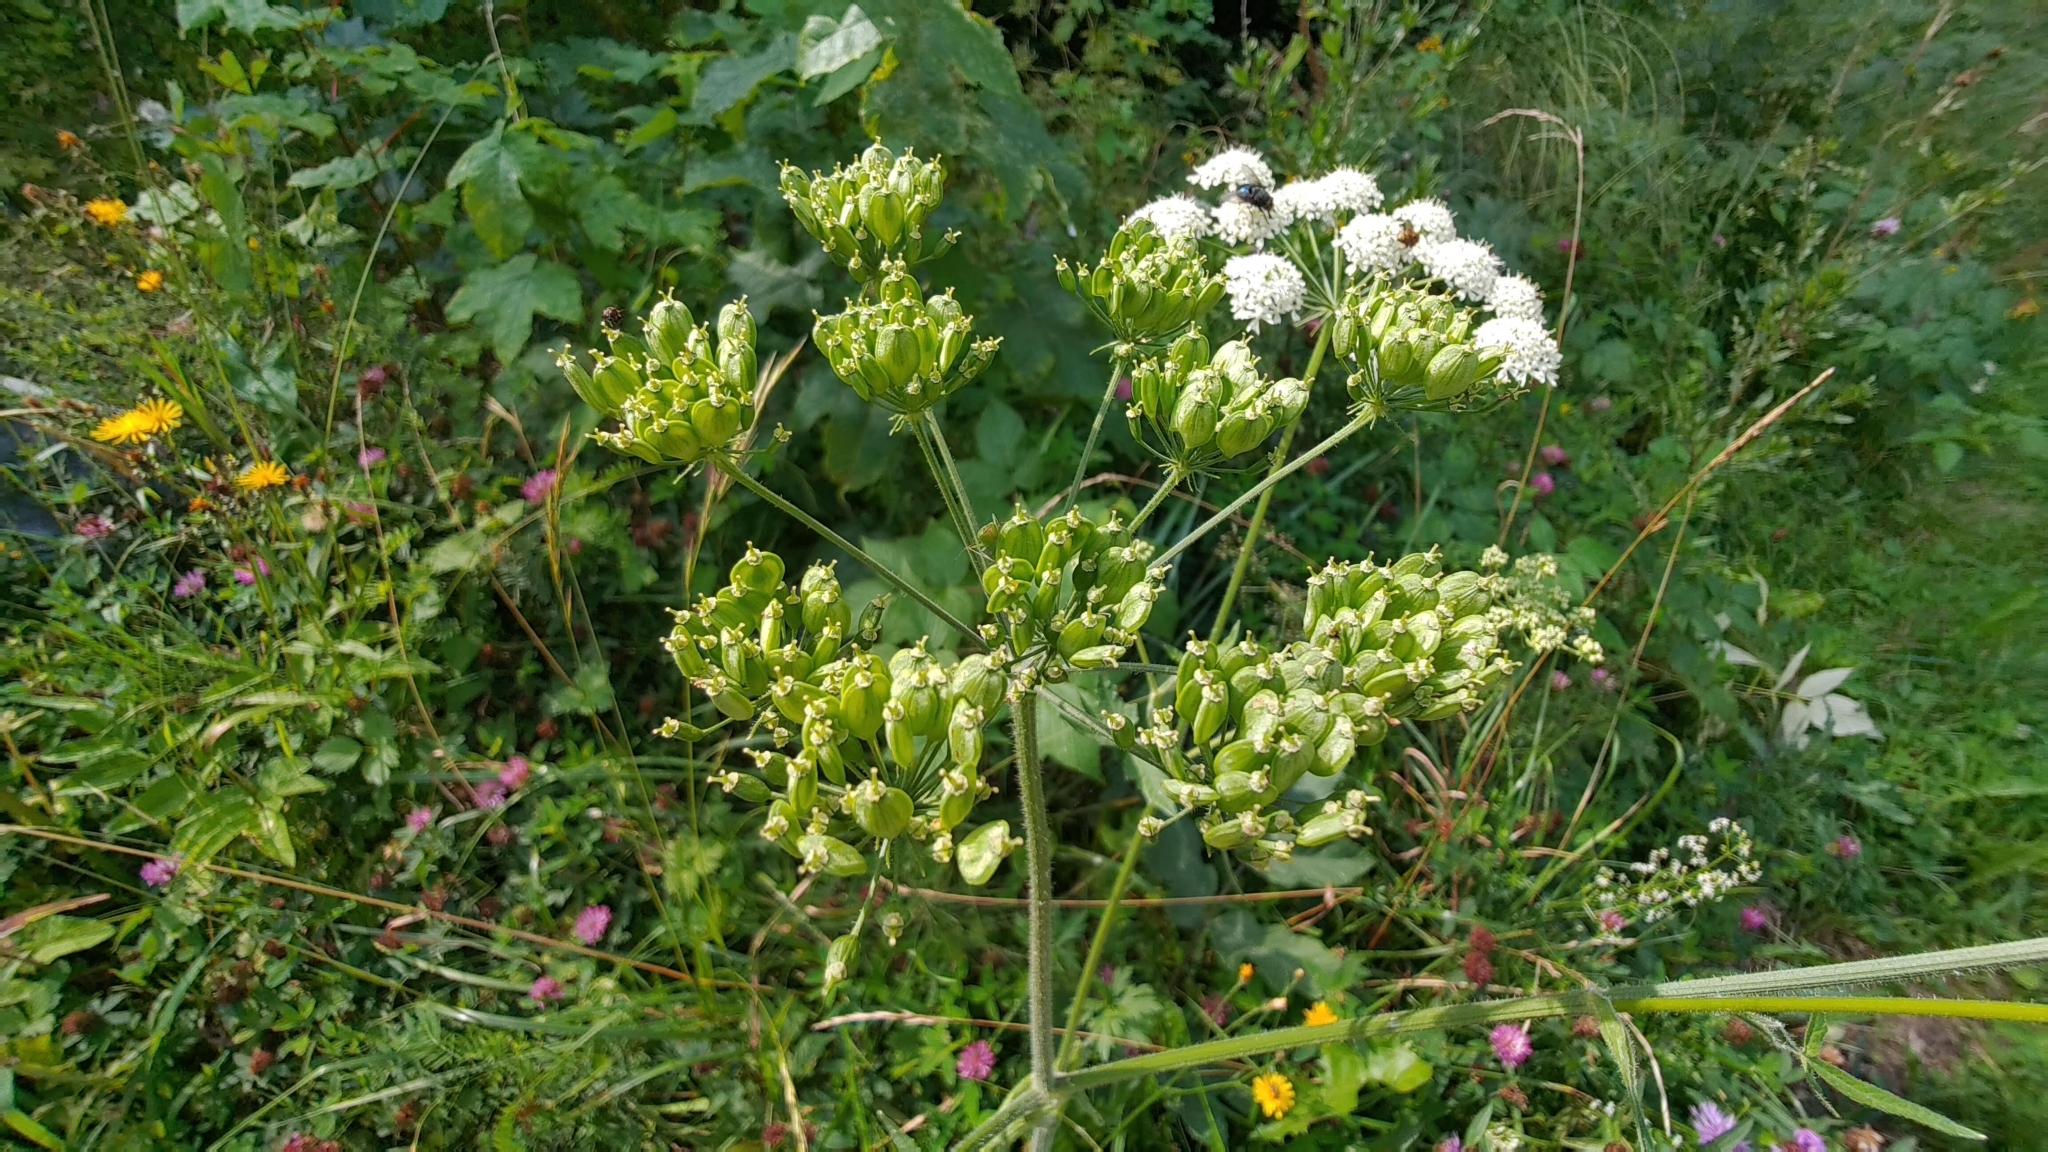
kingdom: Plantae
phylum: Tracheophyta
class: Magnoliopsida
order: Apiales
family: Apiaceae
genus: Heracleum
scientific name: Heracleum sphondylium
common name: Hogweed
